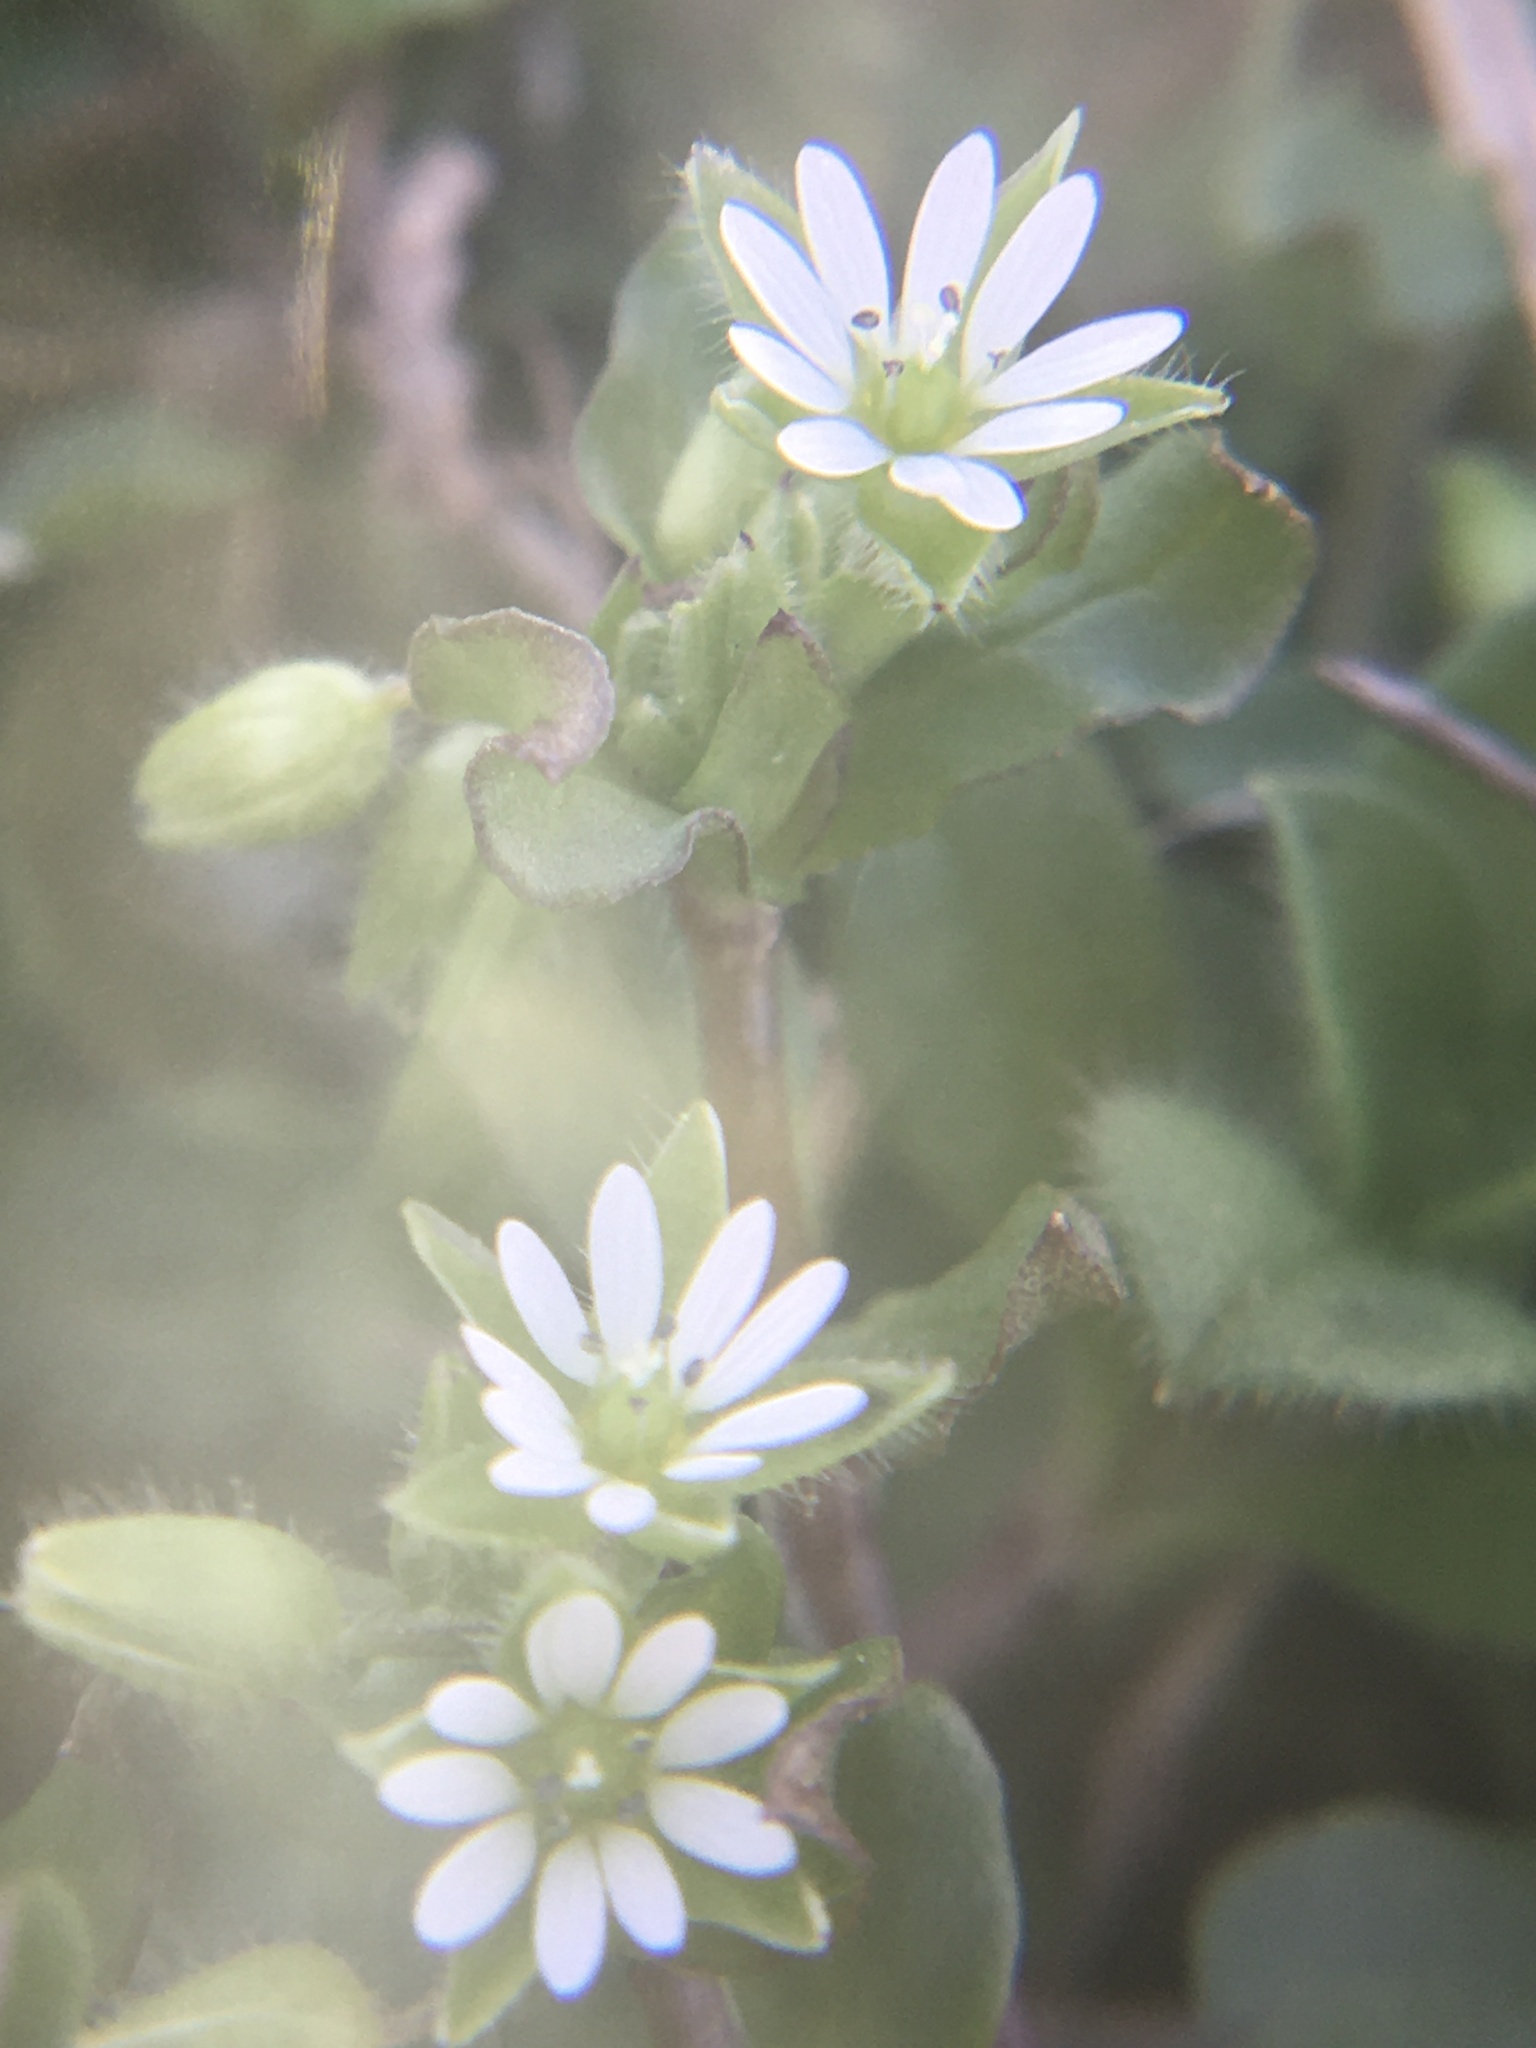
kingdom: Plantae
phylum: Tracheophyta
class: Magnoliopsida
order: Caryophyllales
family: Caryophyllaceae
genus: Stellaria
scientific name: Stellaria media
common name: Common chickweed
